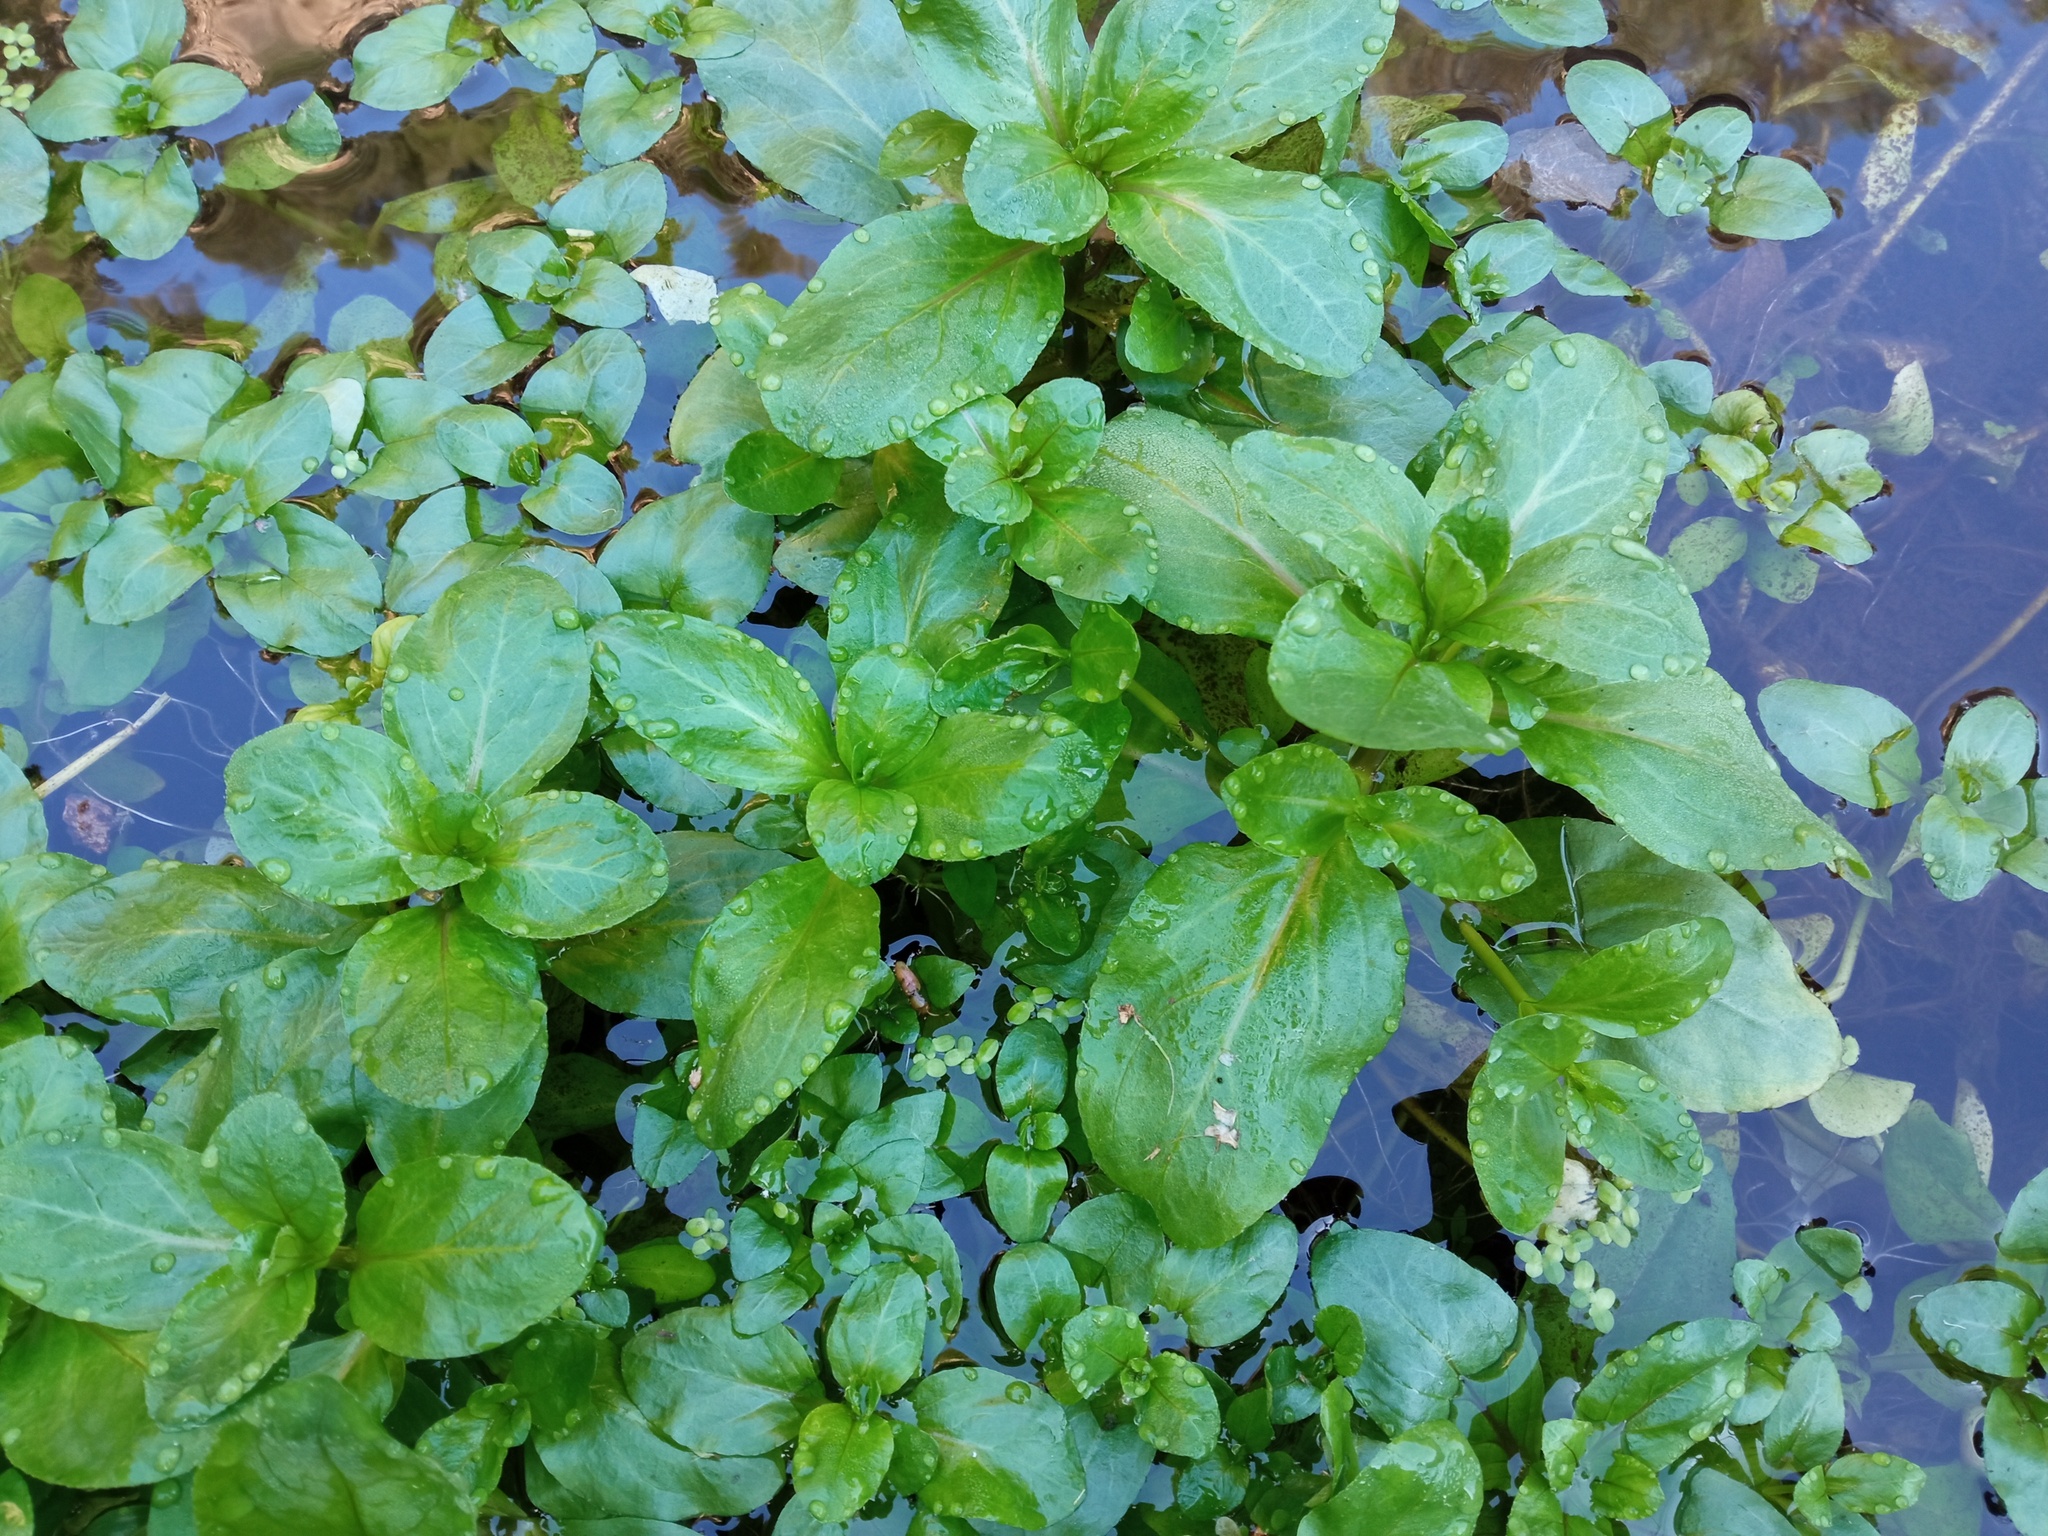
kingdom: Plantae
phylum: Tracheophyta
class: Magnoliopsida
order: Lamiales
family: Plantaginaceae
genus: Veronica
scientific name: Veronica beccabunga
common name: Brooklime
